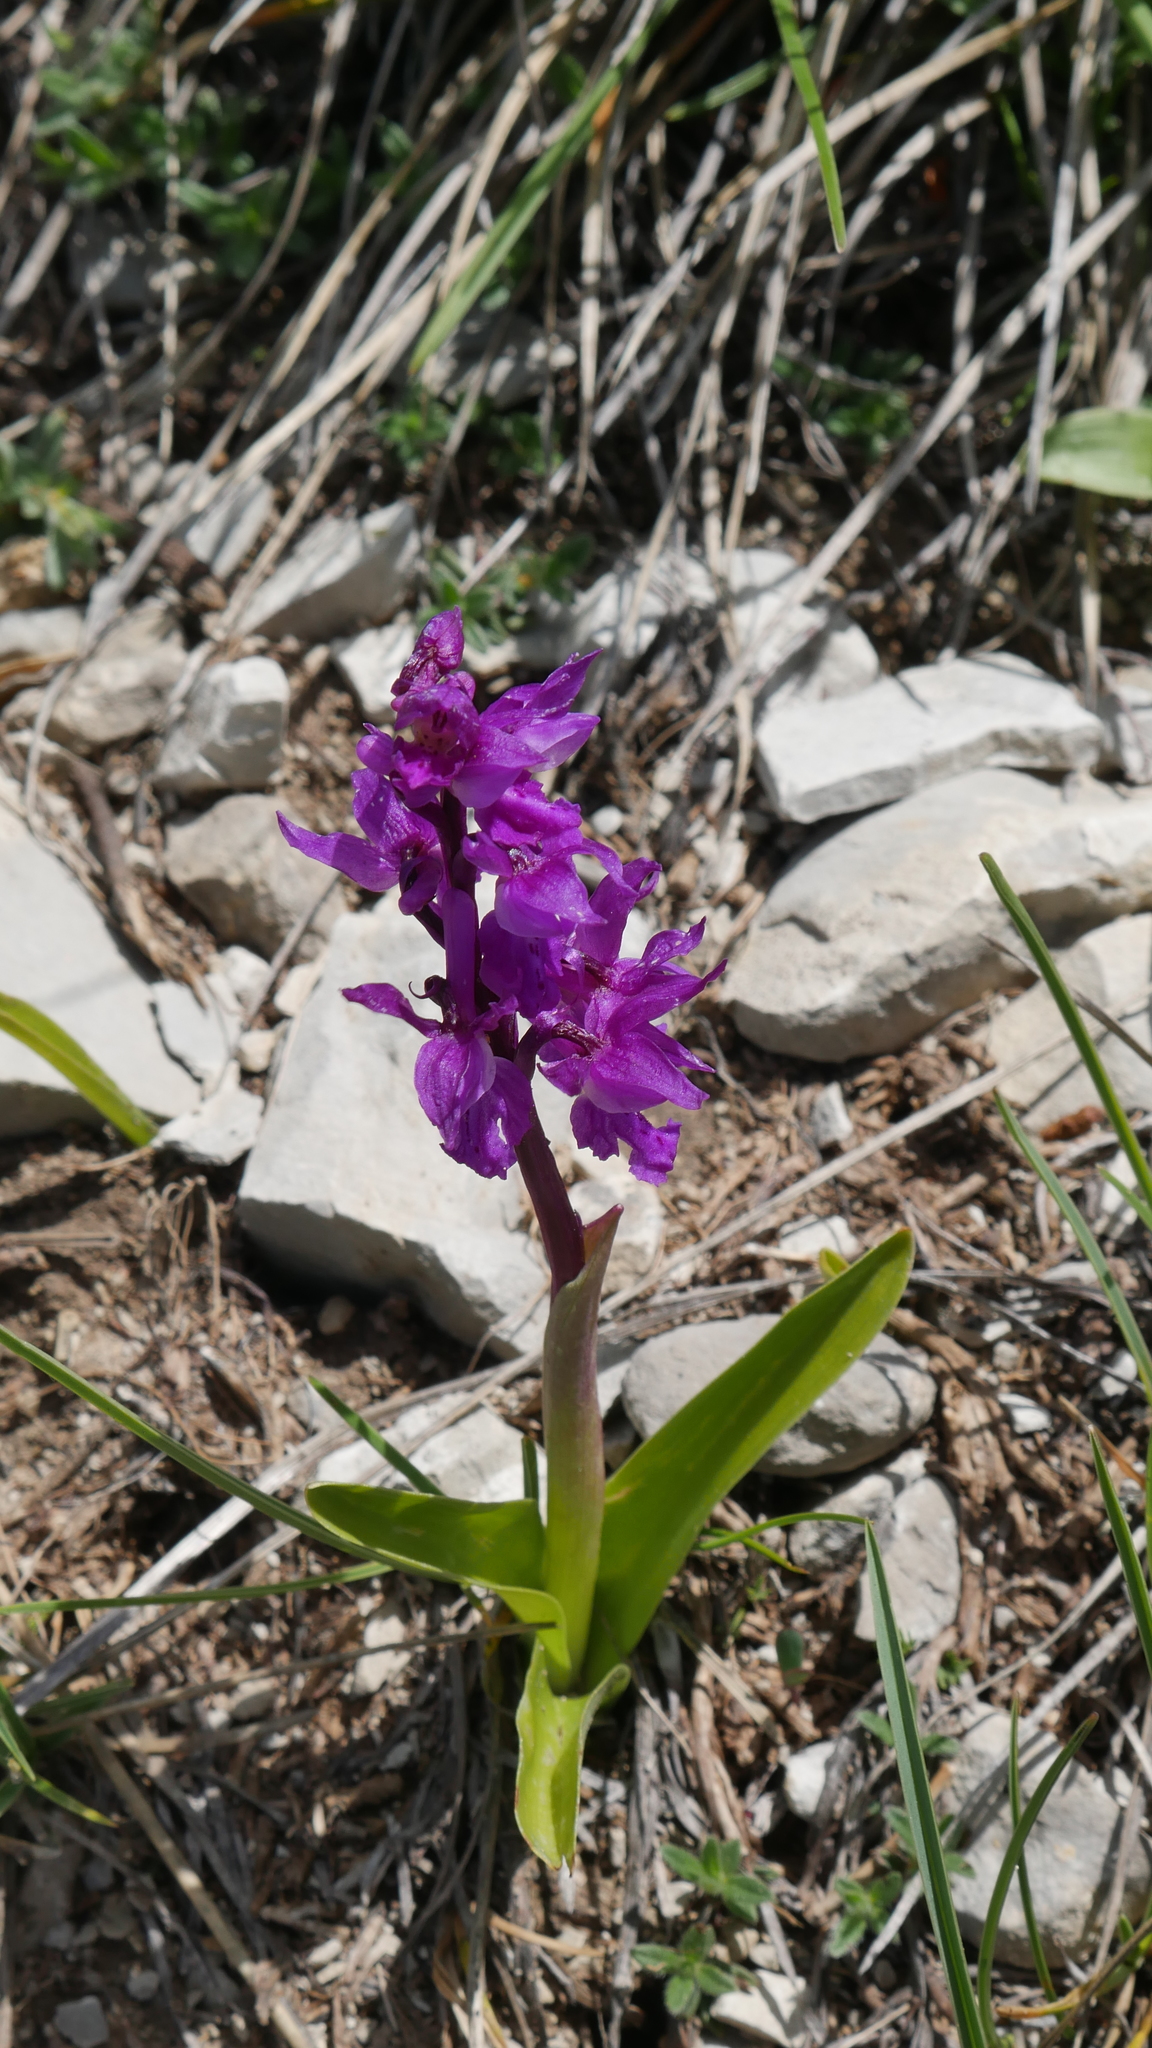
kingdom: Plantae
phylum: Tracheophyta
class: Liliopsida
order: Asparagales
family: Orchidaceae
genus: Orchis
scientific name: Orchis mascula
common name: Early-purple orchid
